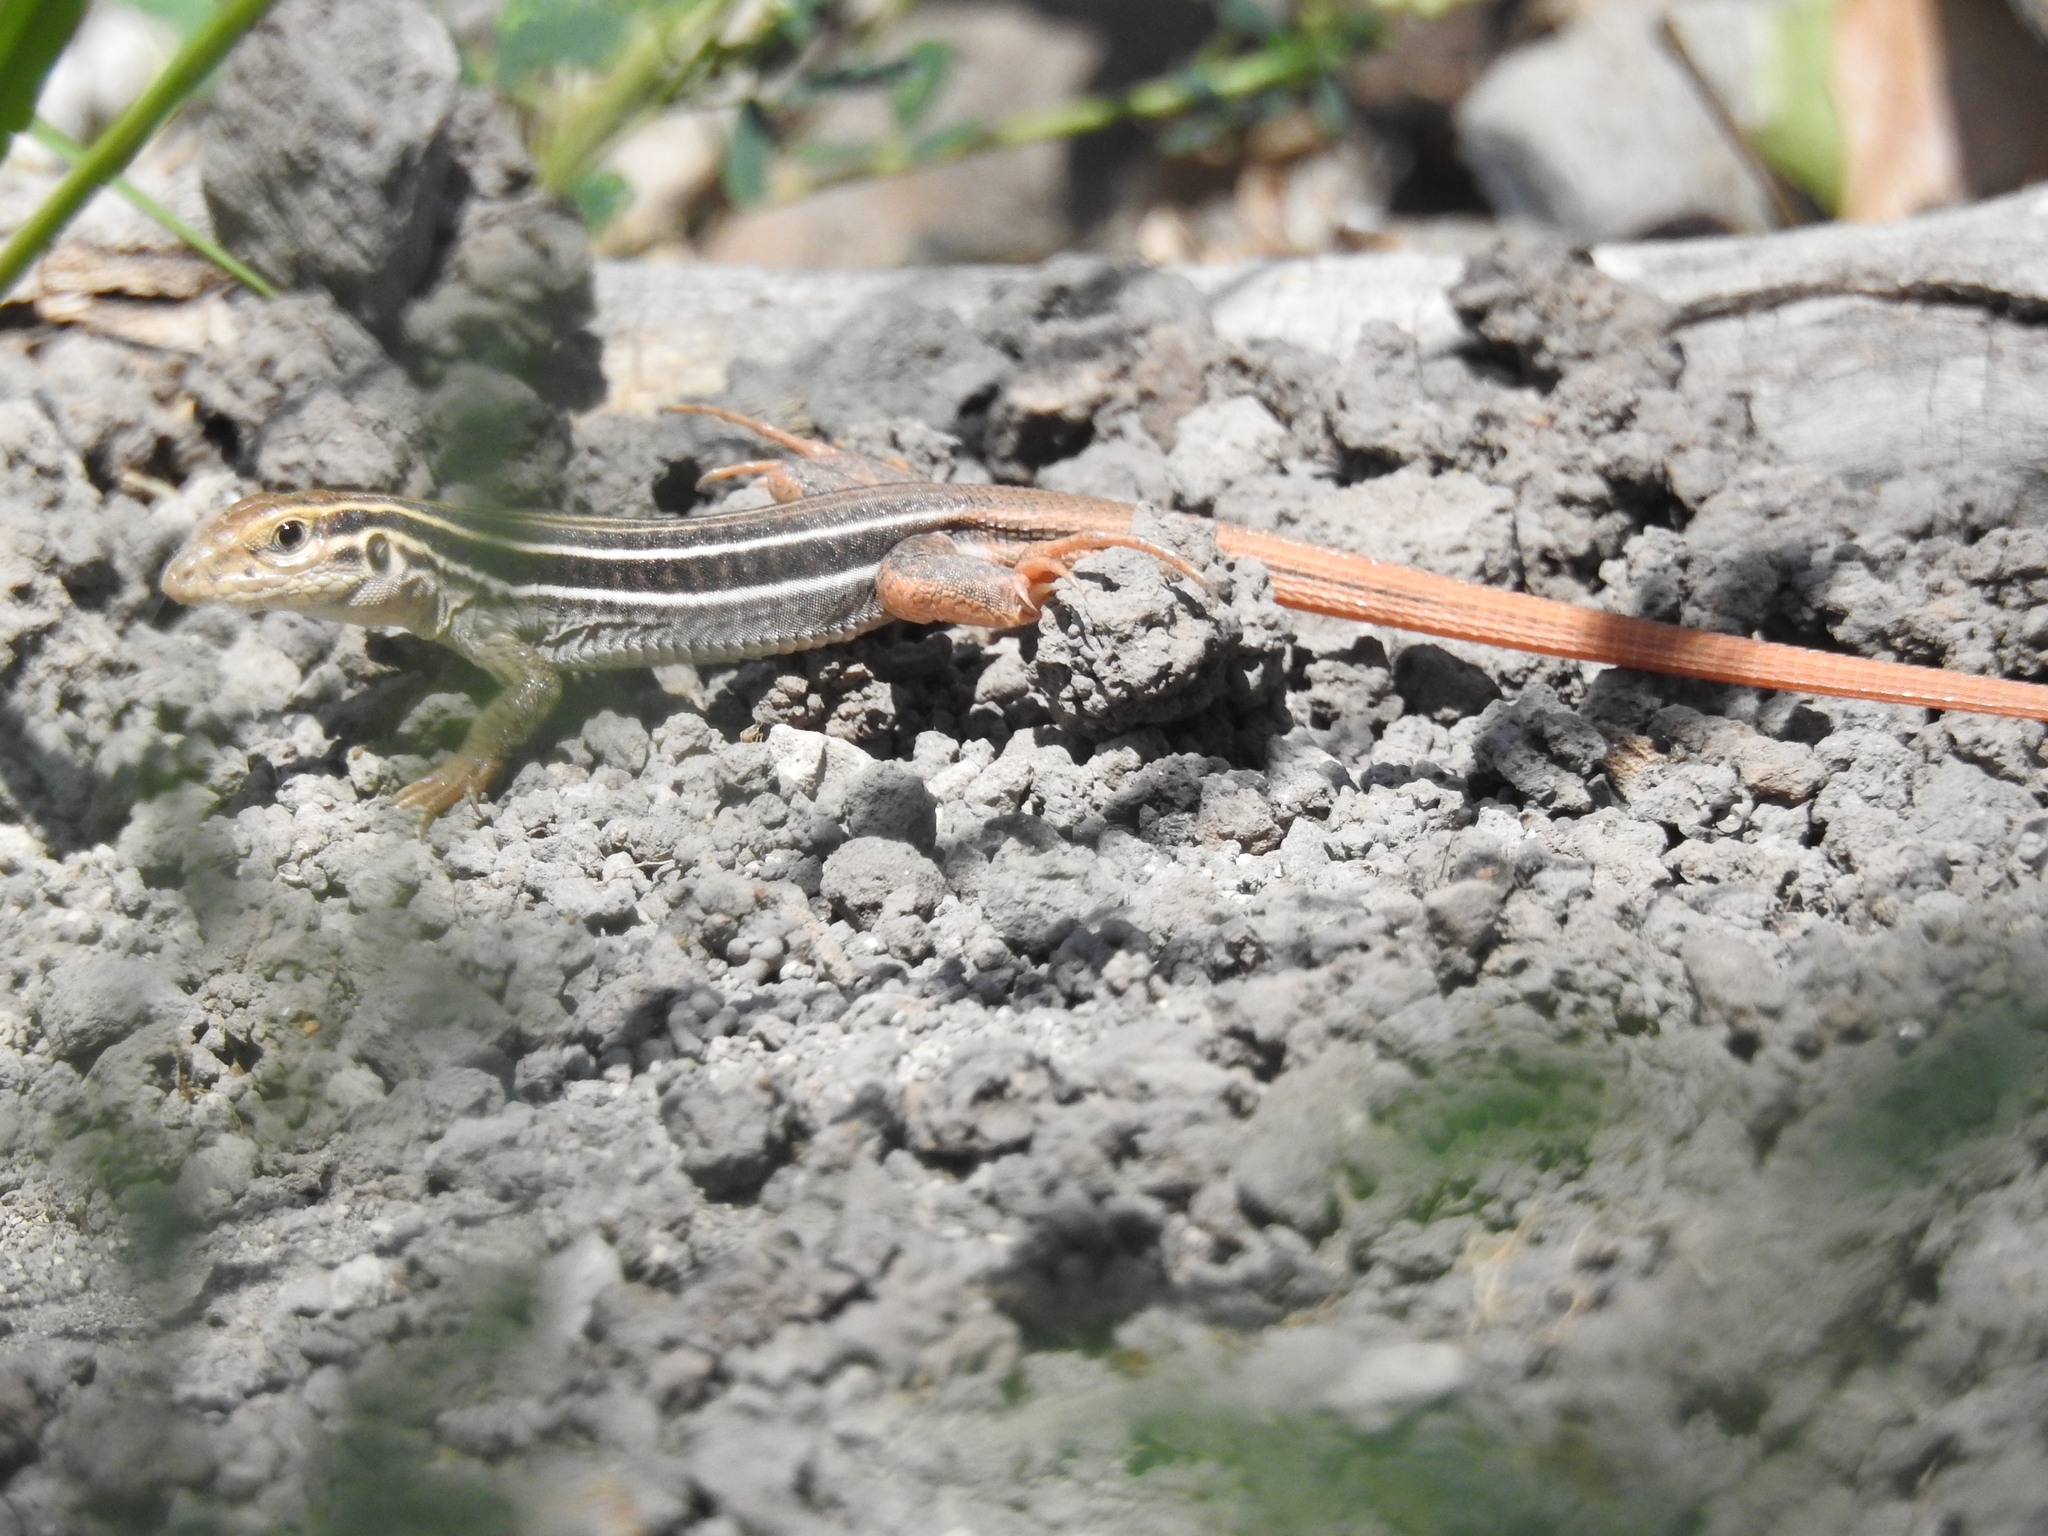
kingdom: Animalia
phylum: Chordata
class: Squamata
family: Teiidae
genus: Aspidoscelis
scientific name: Aspidoscelis stictogrammus
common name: Giant spotted whiptail
